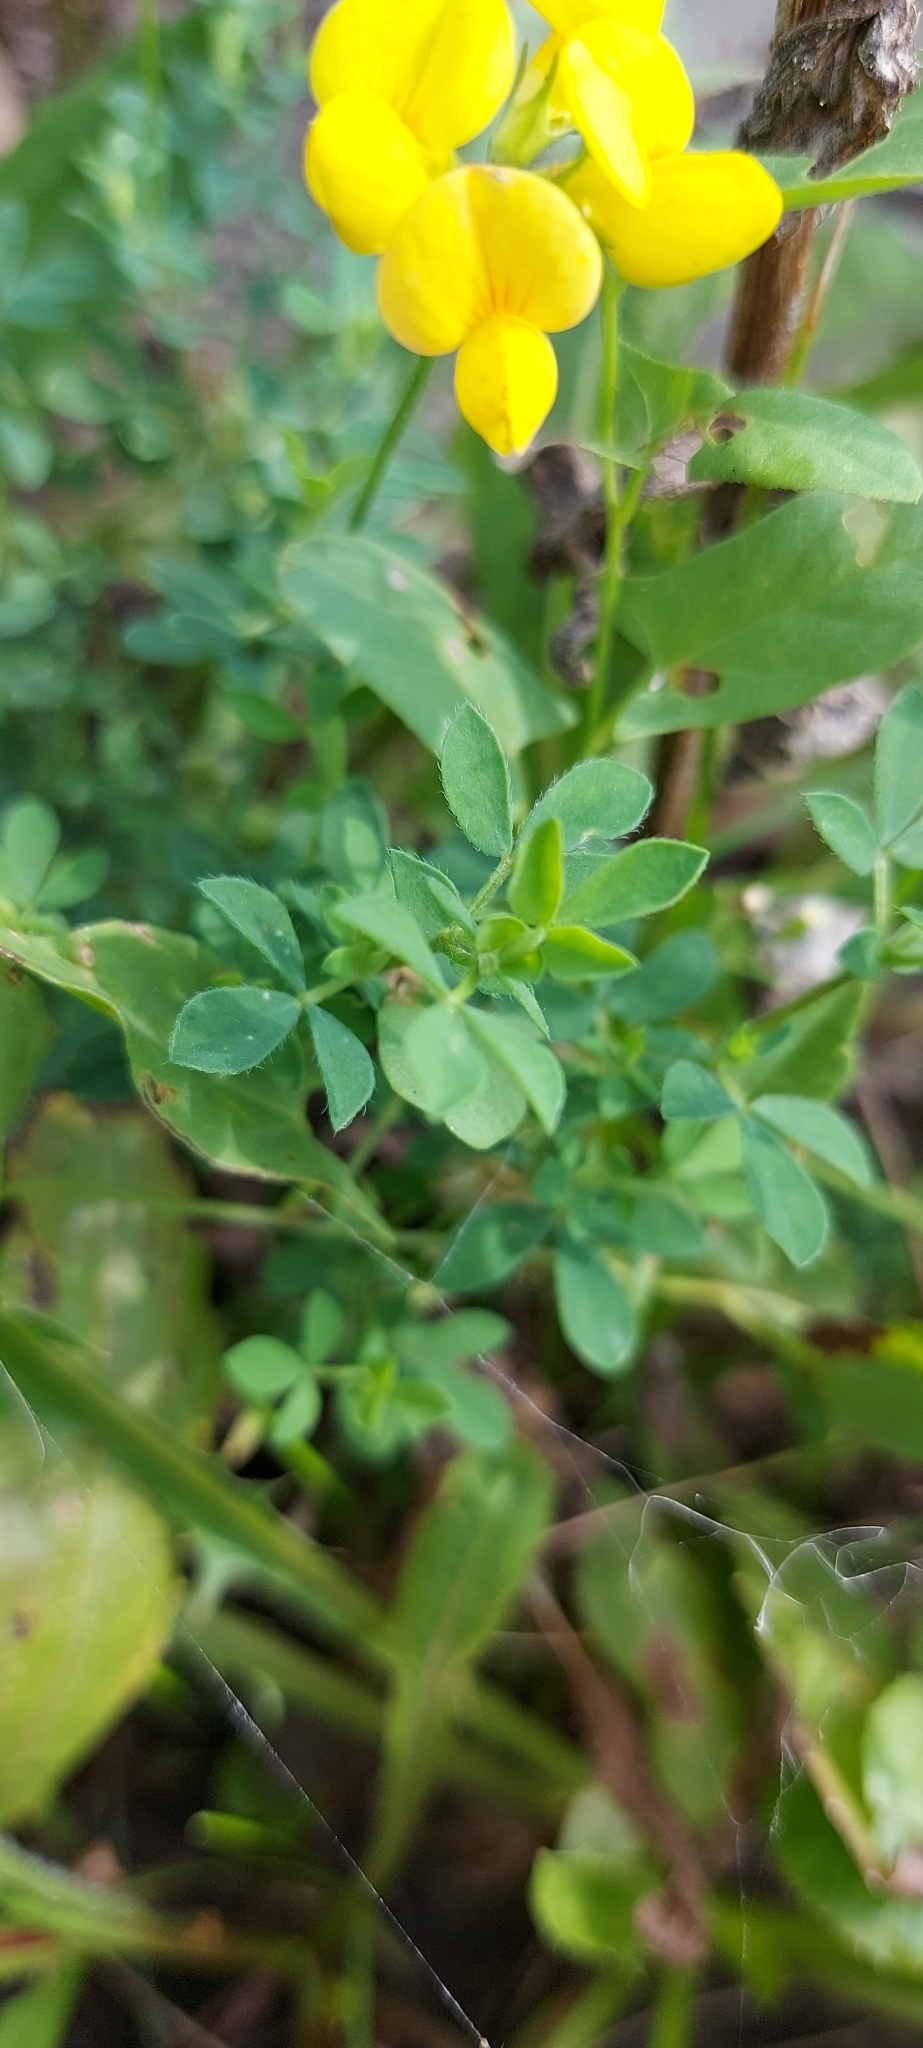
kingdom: Plantae
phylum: Tracheophyta
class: Magnoliopsida
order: Fabales
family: Fabaceae
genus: Lotus
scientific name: Lotus corniculatus
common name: Common bird's-foot-trefoil
